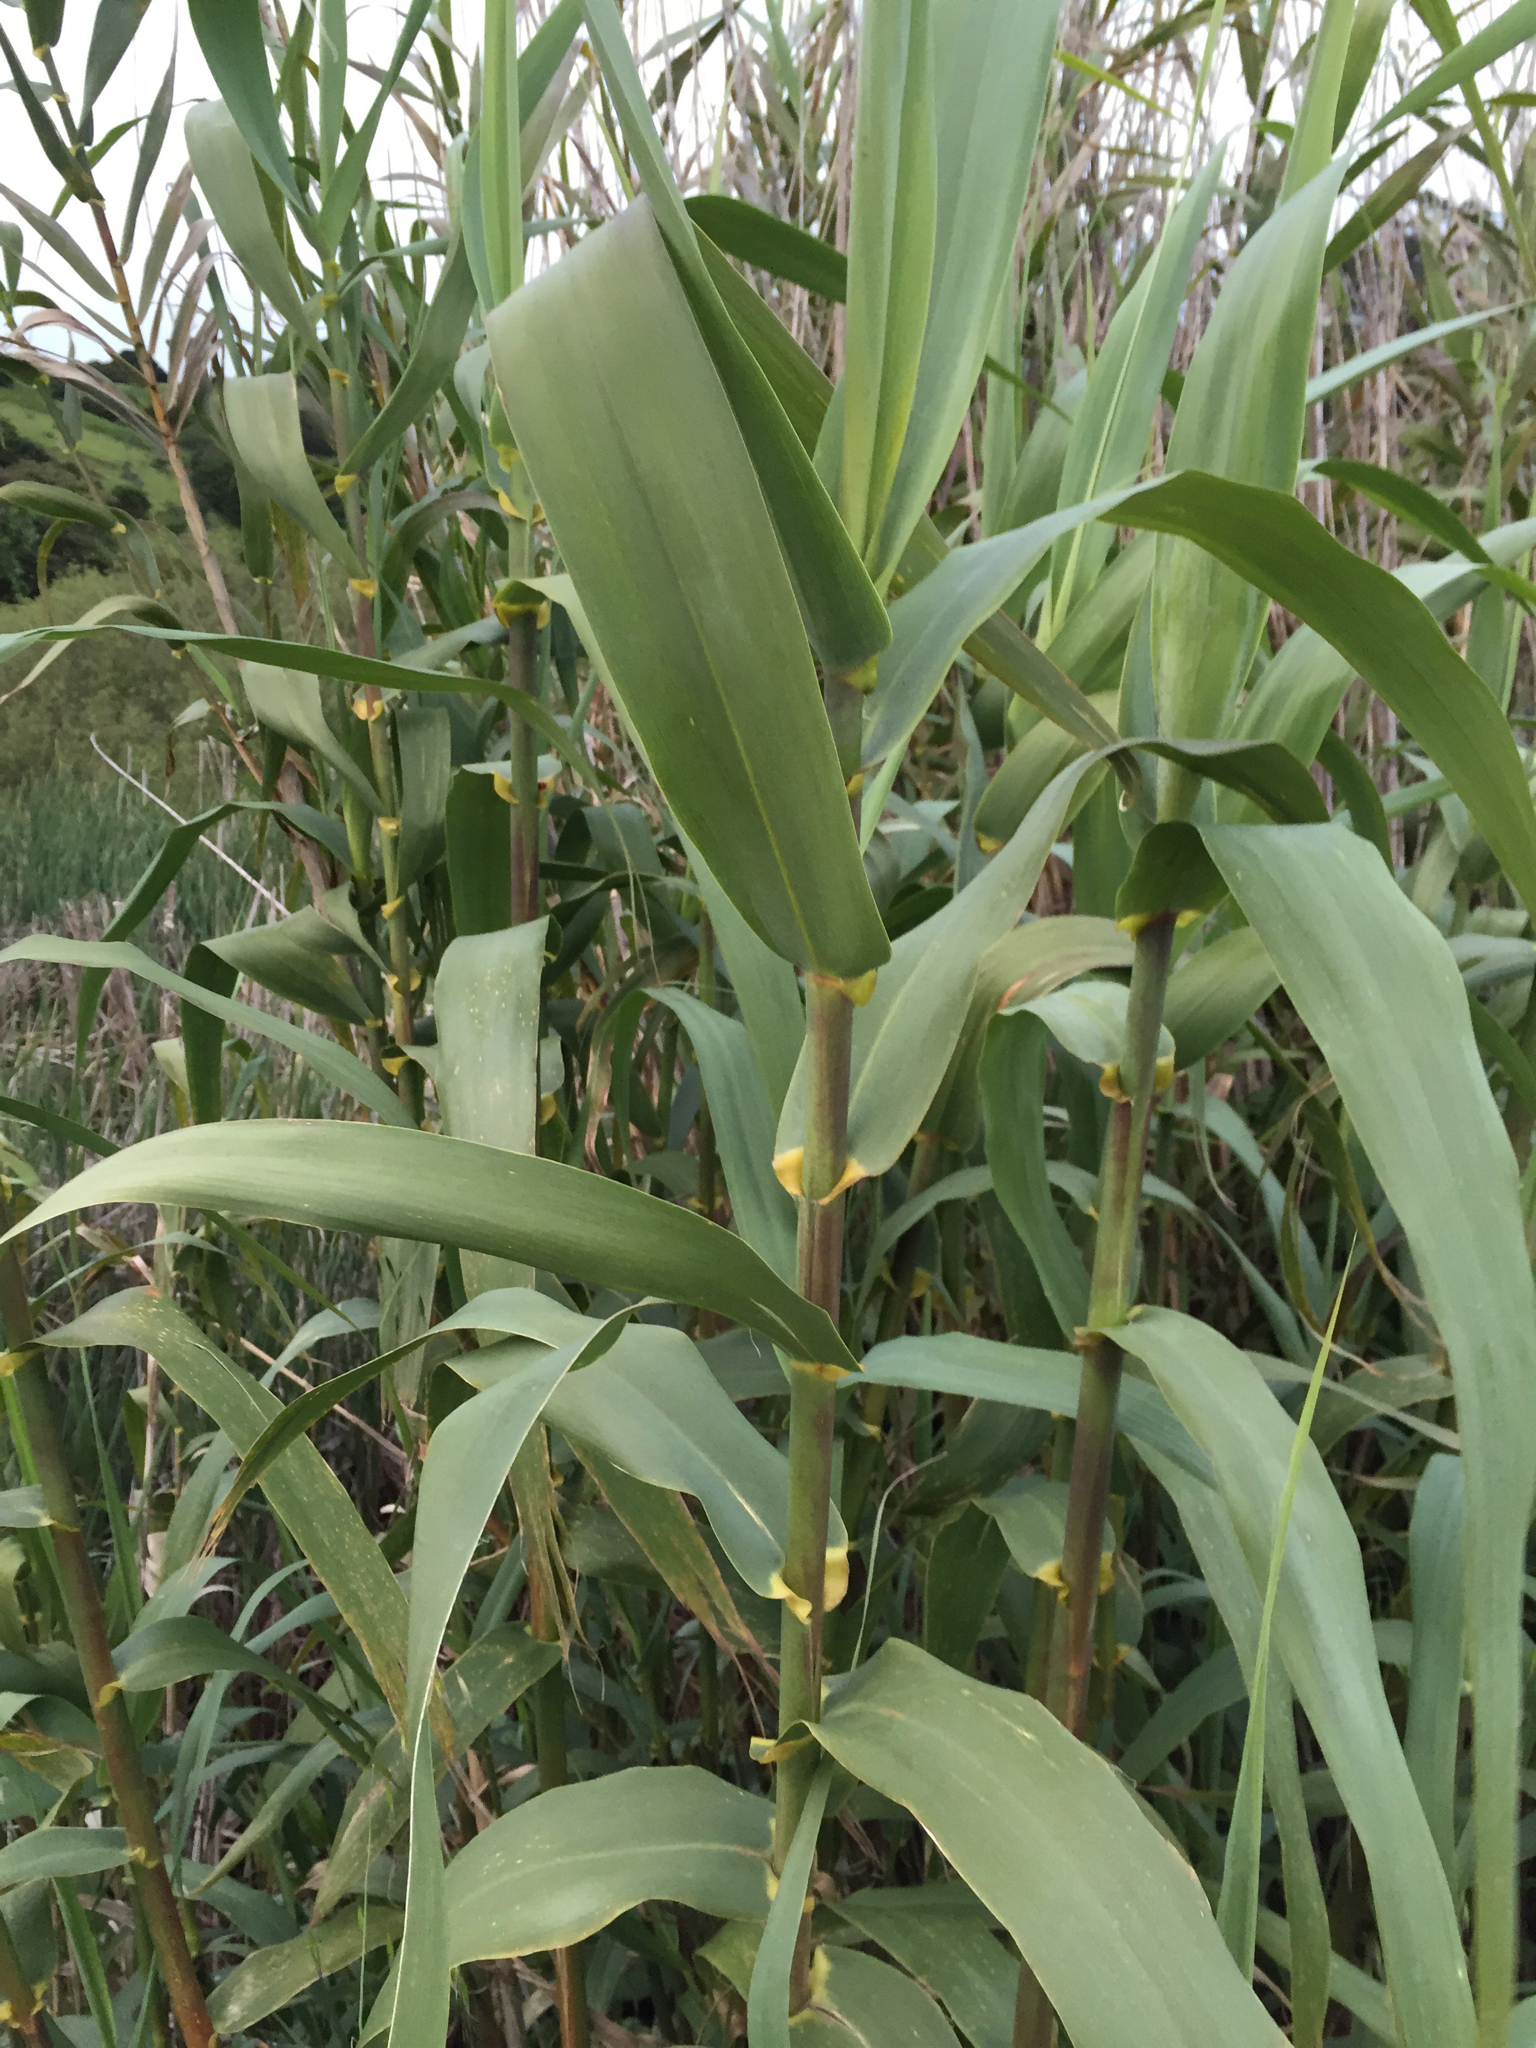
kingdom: Plantae
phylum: Tracheophyta
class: Liliopsida
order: Poales
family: Poaceae
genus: Arundo
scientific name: Arundo donax
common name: Giant reed
